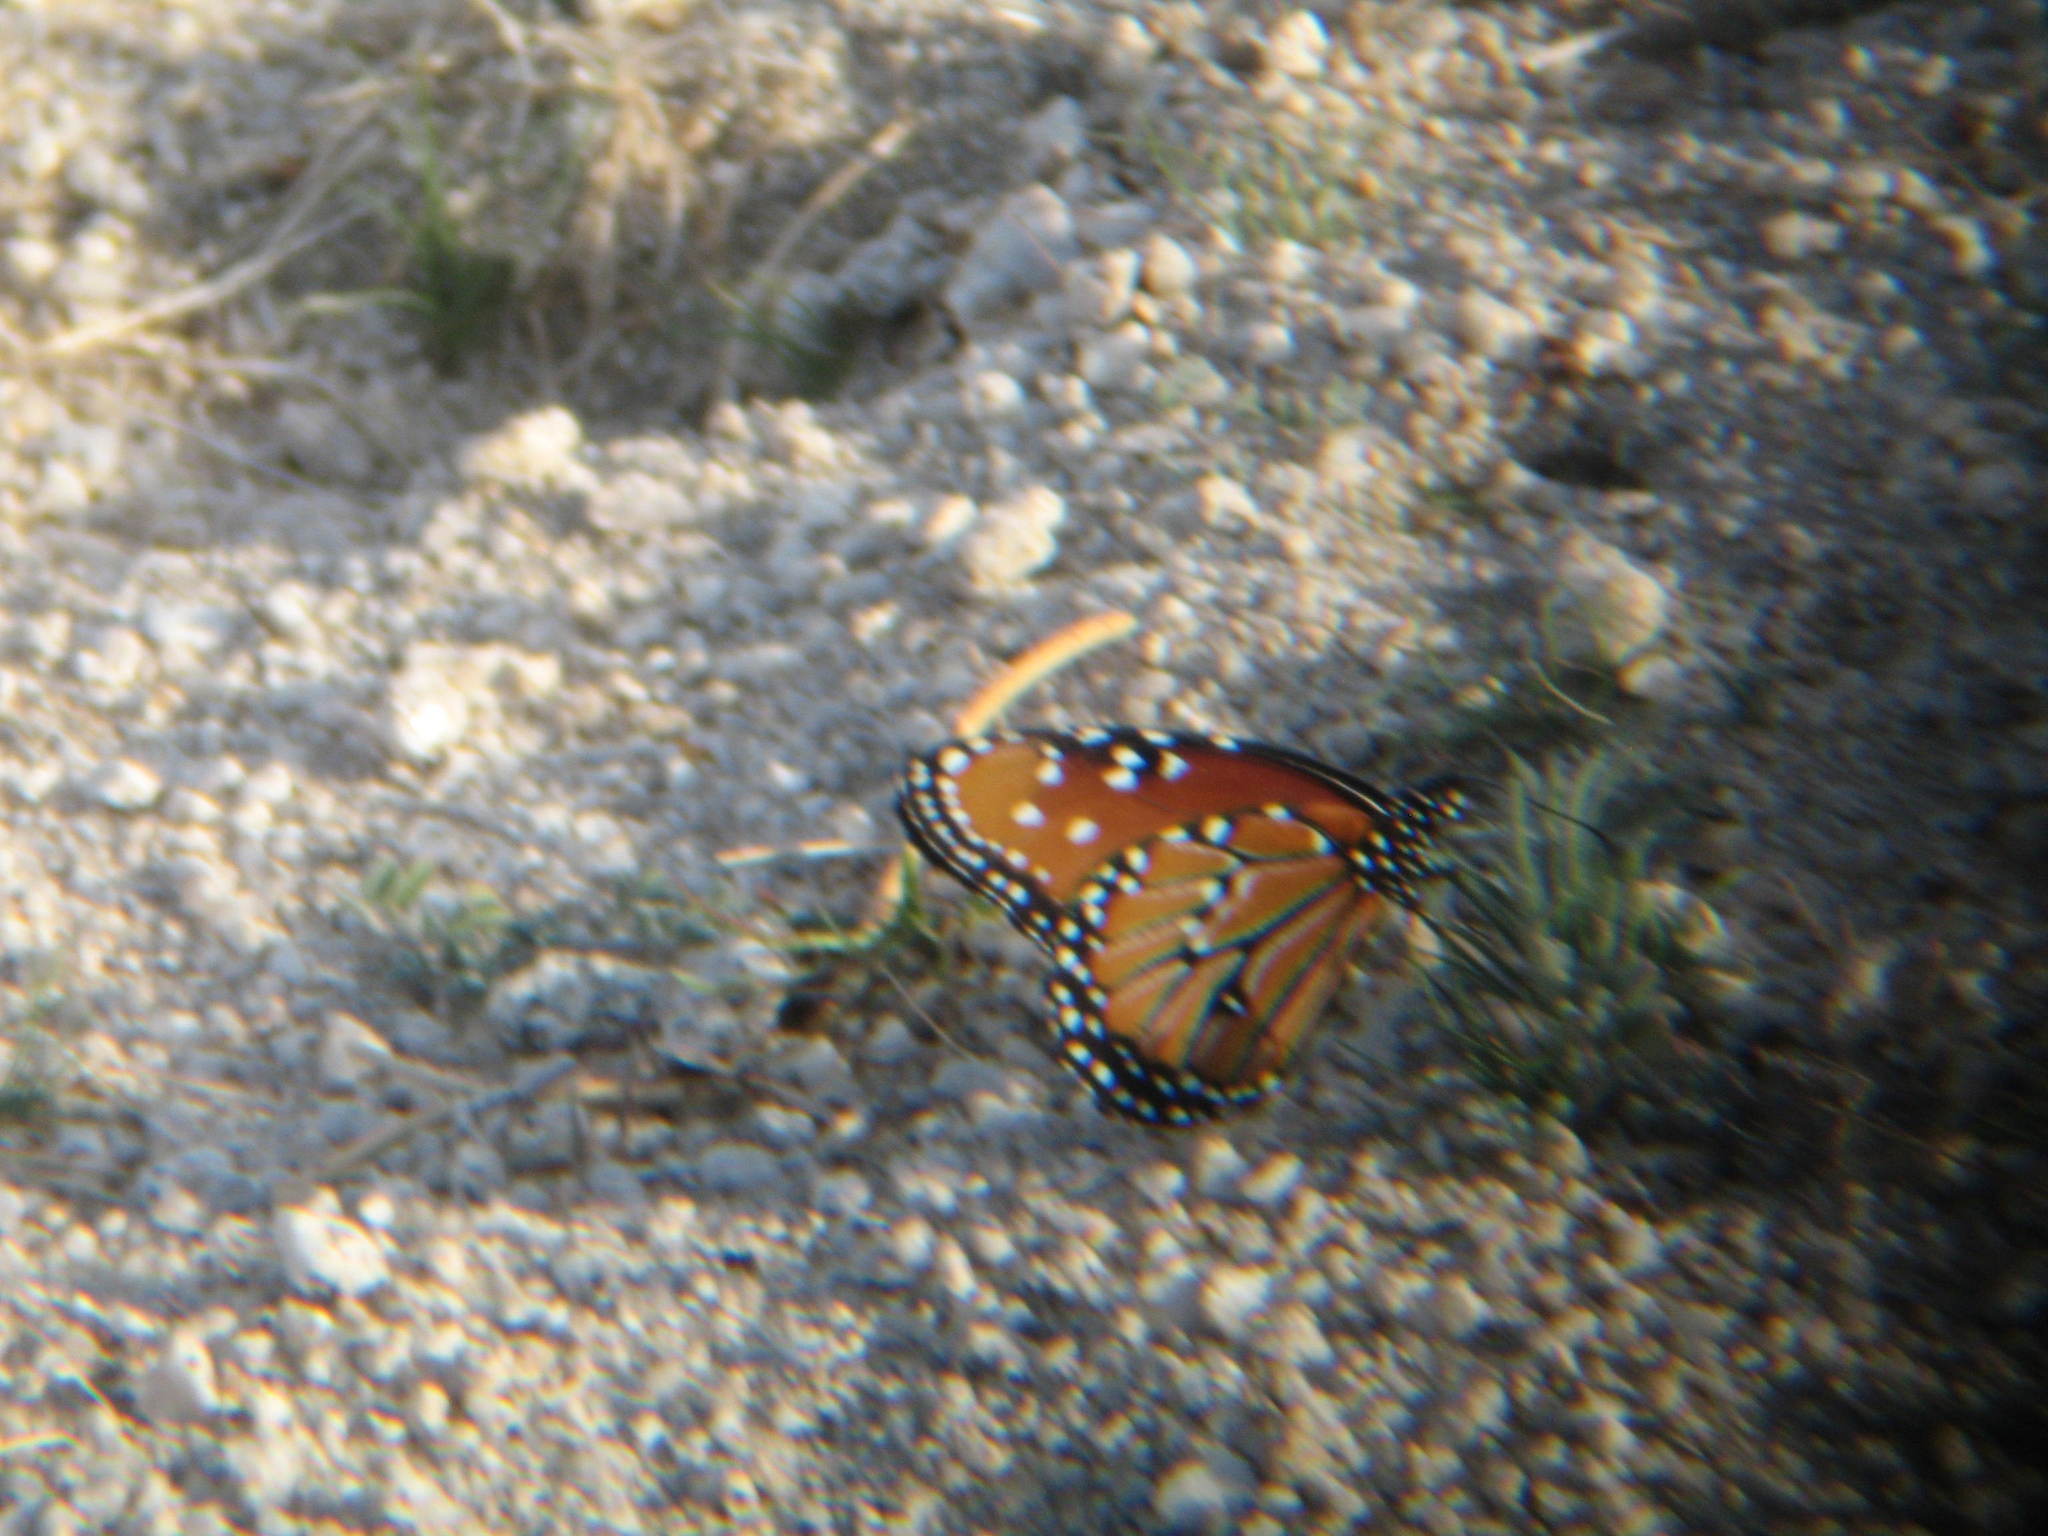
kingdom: Animalia
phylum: Arthropoda
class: Insecta
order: Lepidoptera
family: Nymphalidae
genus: Danaus
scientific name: Danaus gilippus
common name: Queen
